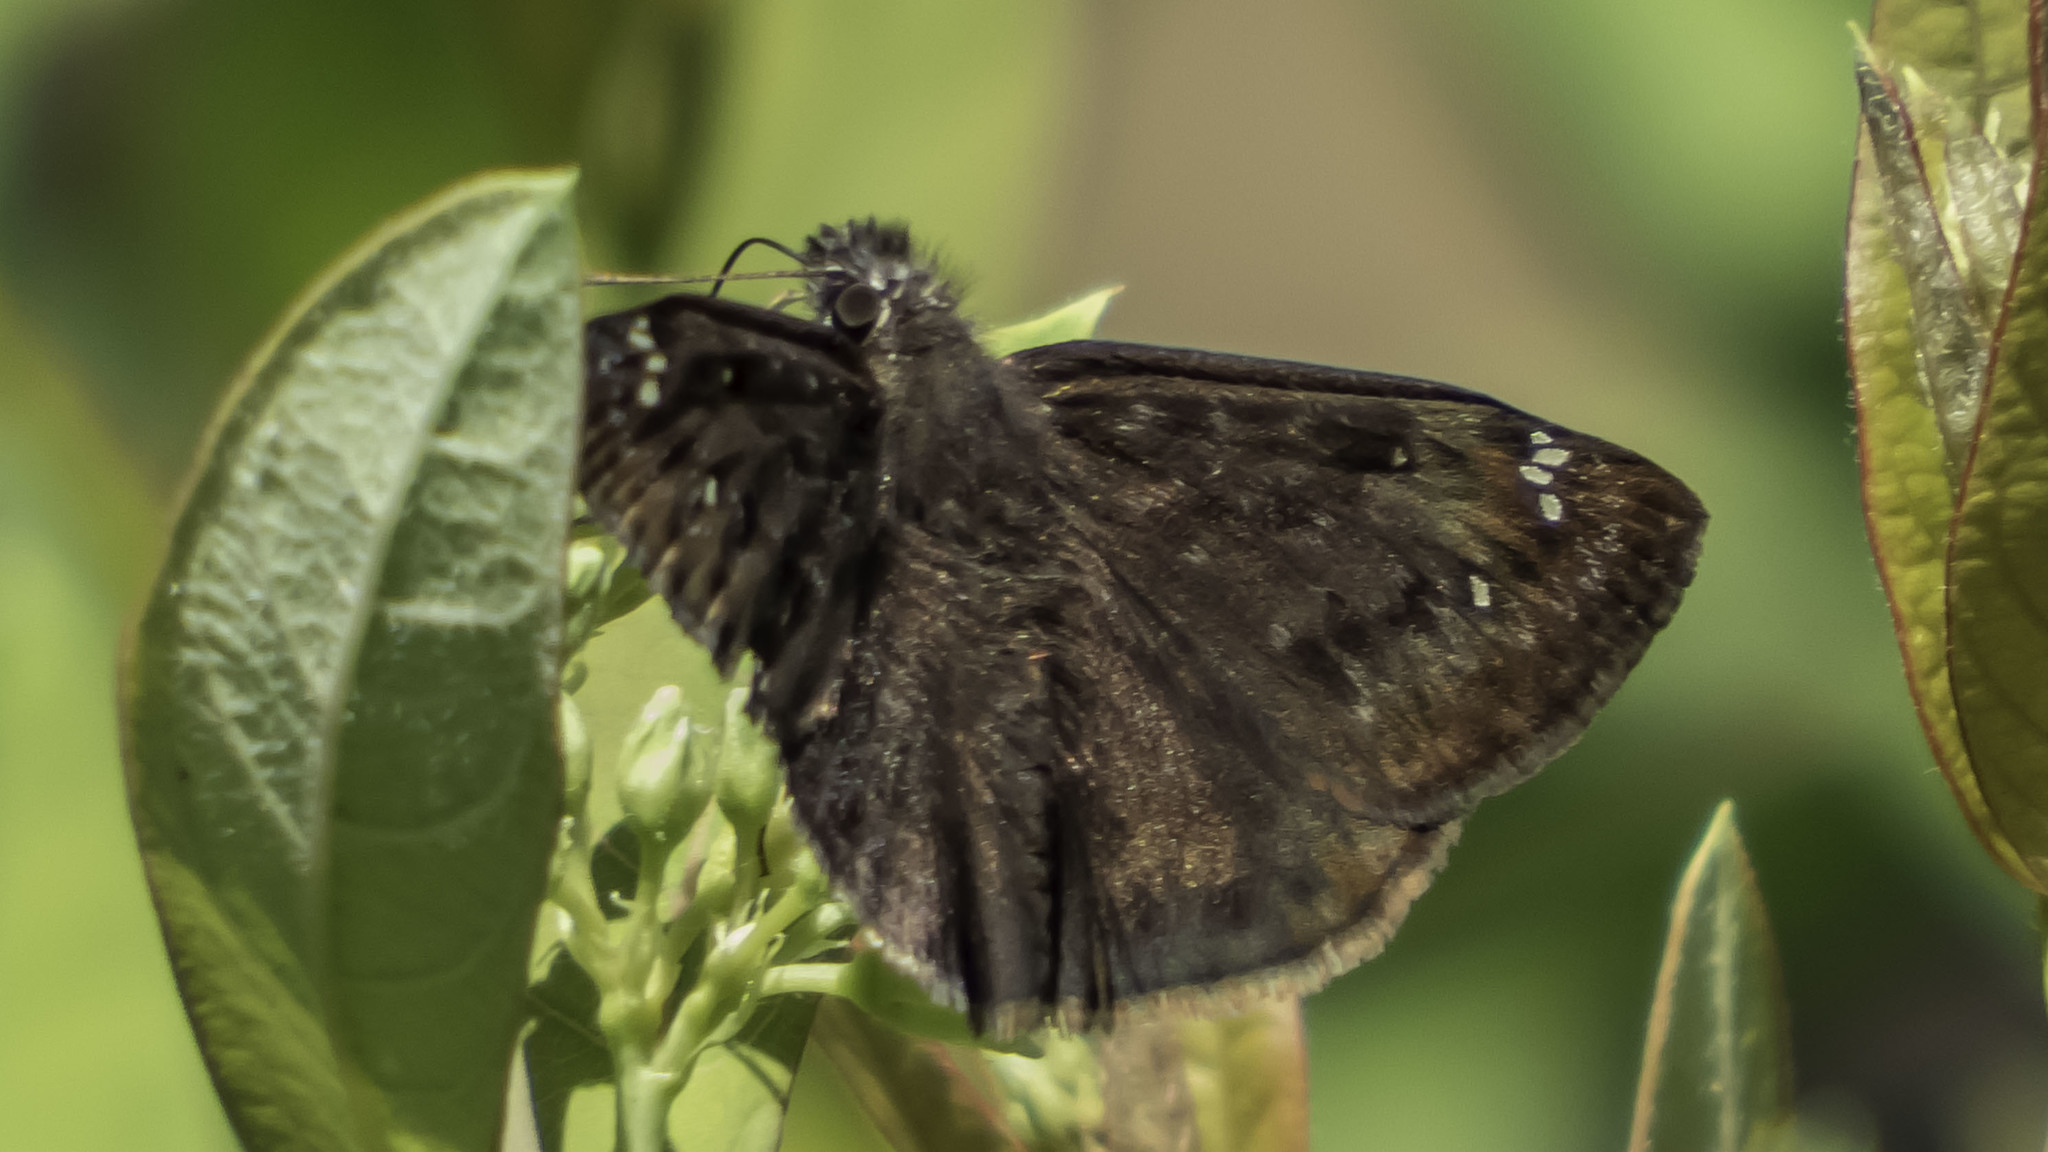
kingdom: Animalia
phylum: Arthropoda
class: Insecta
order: Lepidoptera
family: Hesperiidae
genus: Erynnis
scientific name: Erynnis horatius
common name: Horace's duskywing
